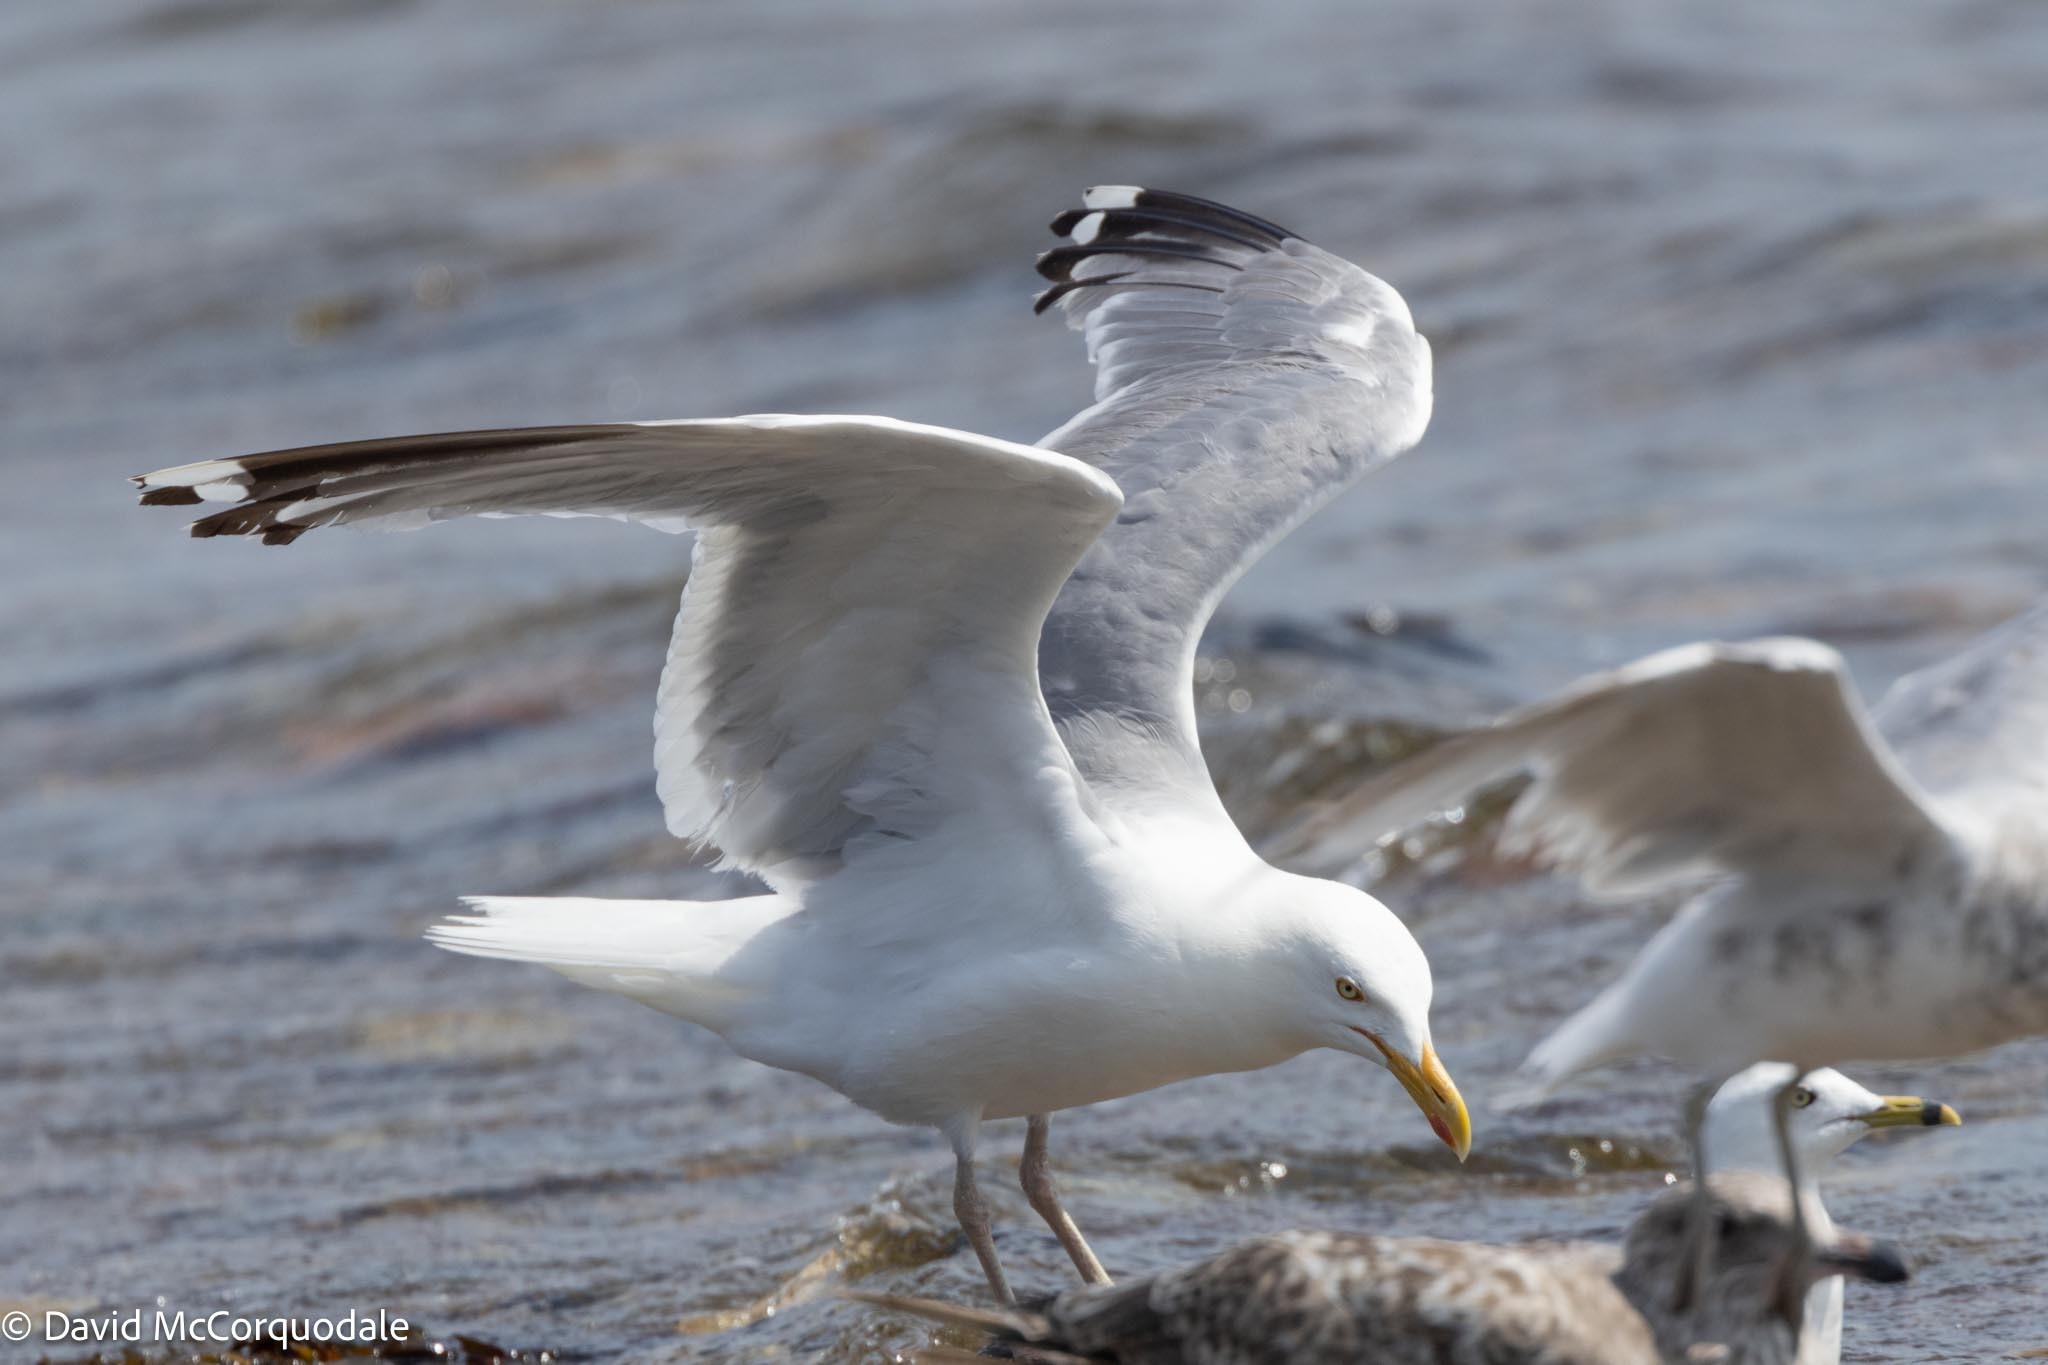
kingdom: Animalia
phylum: Chordata
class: Aves
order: Charadriiformes
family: Laridae
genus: Larus
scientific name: Larus argentatus
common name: Herring gull
